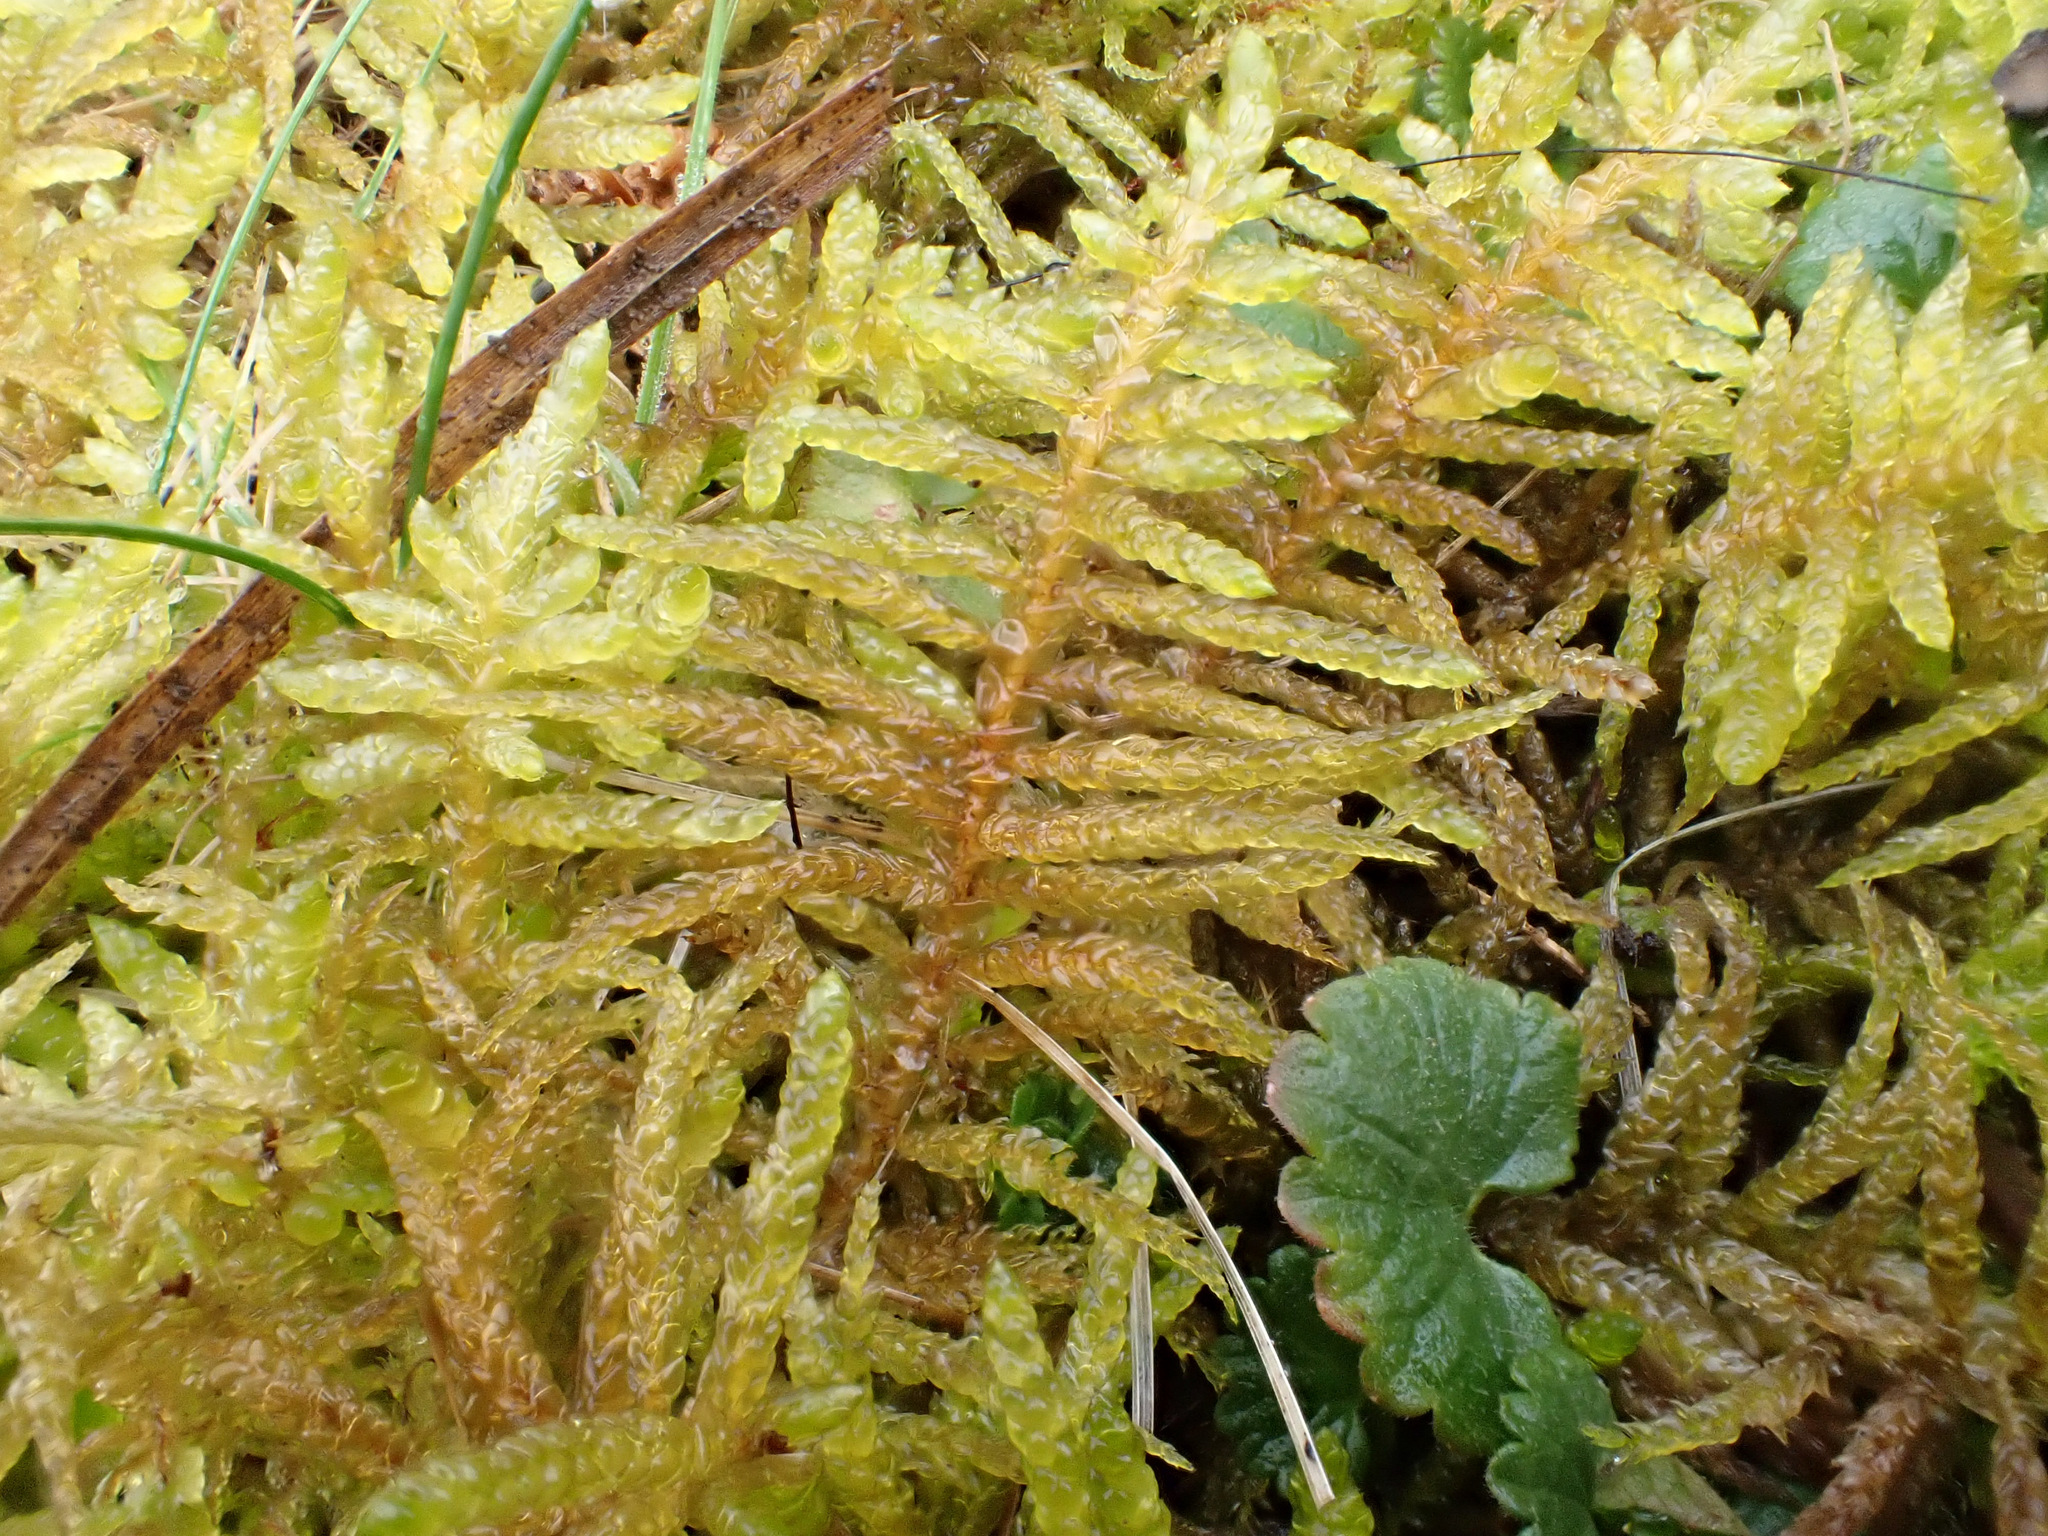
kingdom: Plantae
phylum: Bryophyta
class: Bryopsida
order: Hypnales
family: Brachytheciaceae
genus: Pseudoscleropodium
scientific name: Pseudoscleropodium purum
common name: Neat feather-moss
